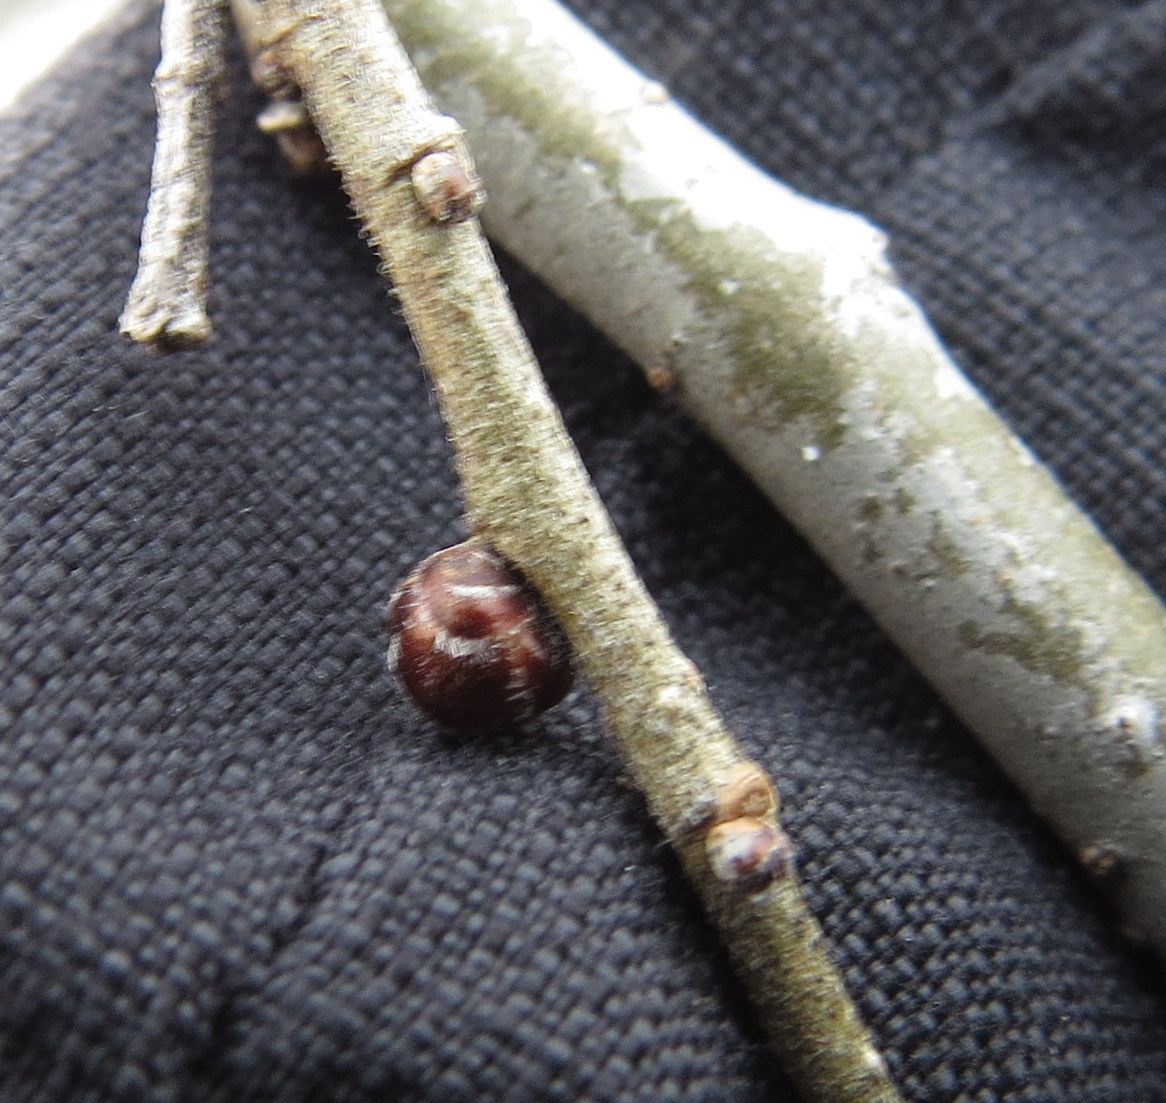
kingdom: Plantae
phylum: Tracheophyta
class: Magnoliopsida
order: Rosales
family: Ulmaceae
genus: Ulmus
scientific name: Ulmus pumila
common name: Siberian elm
